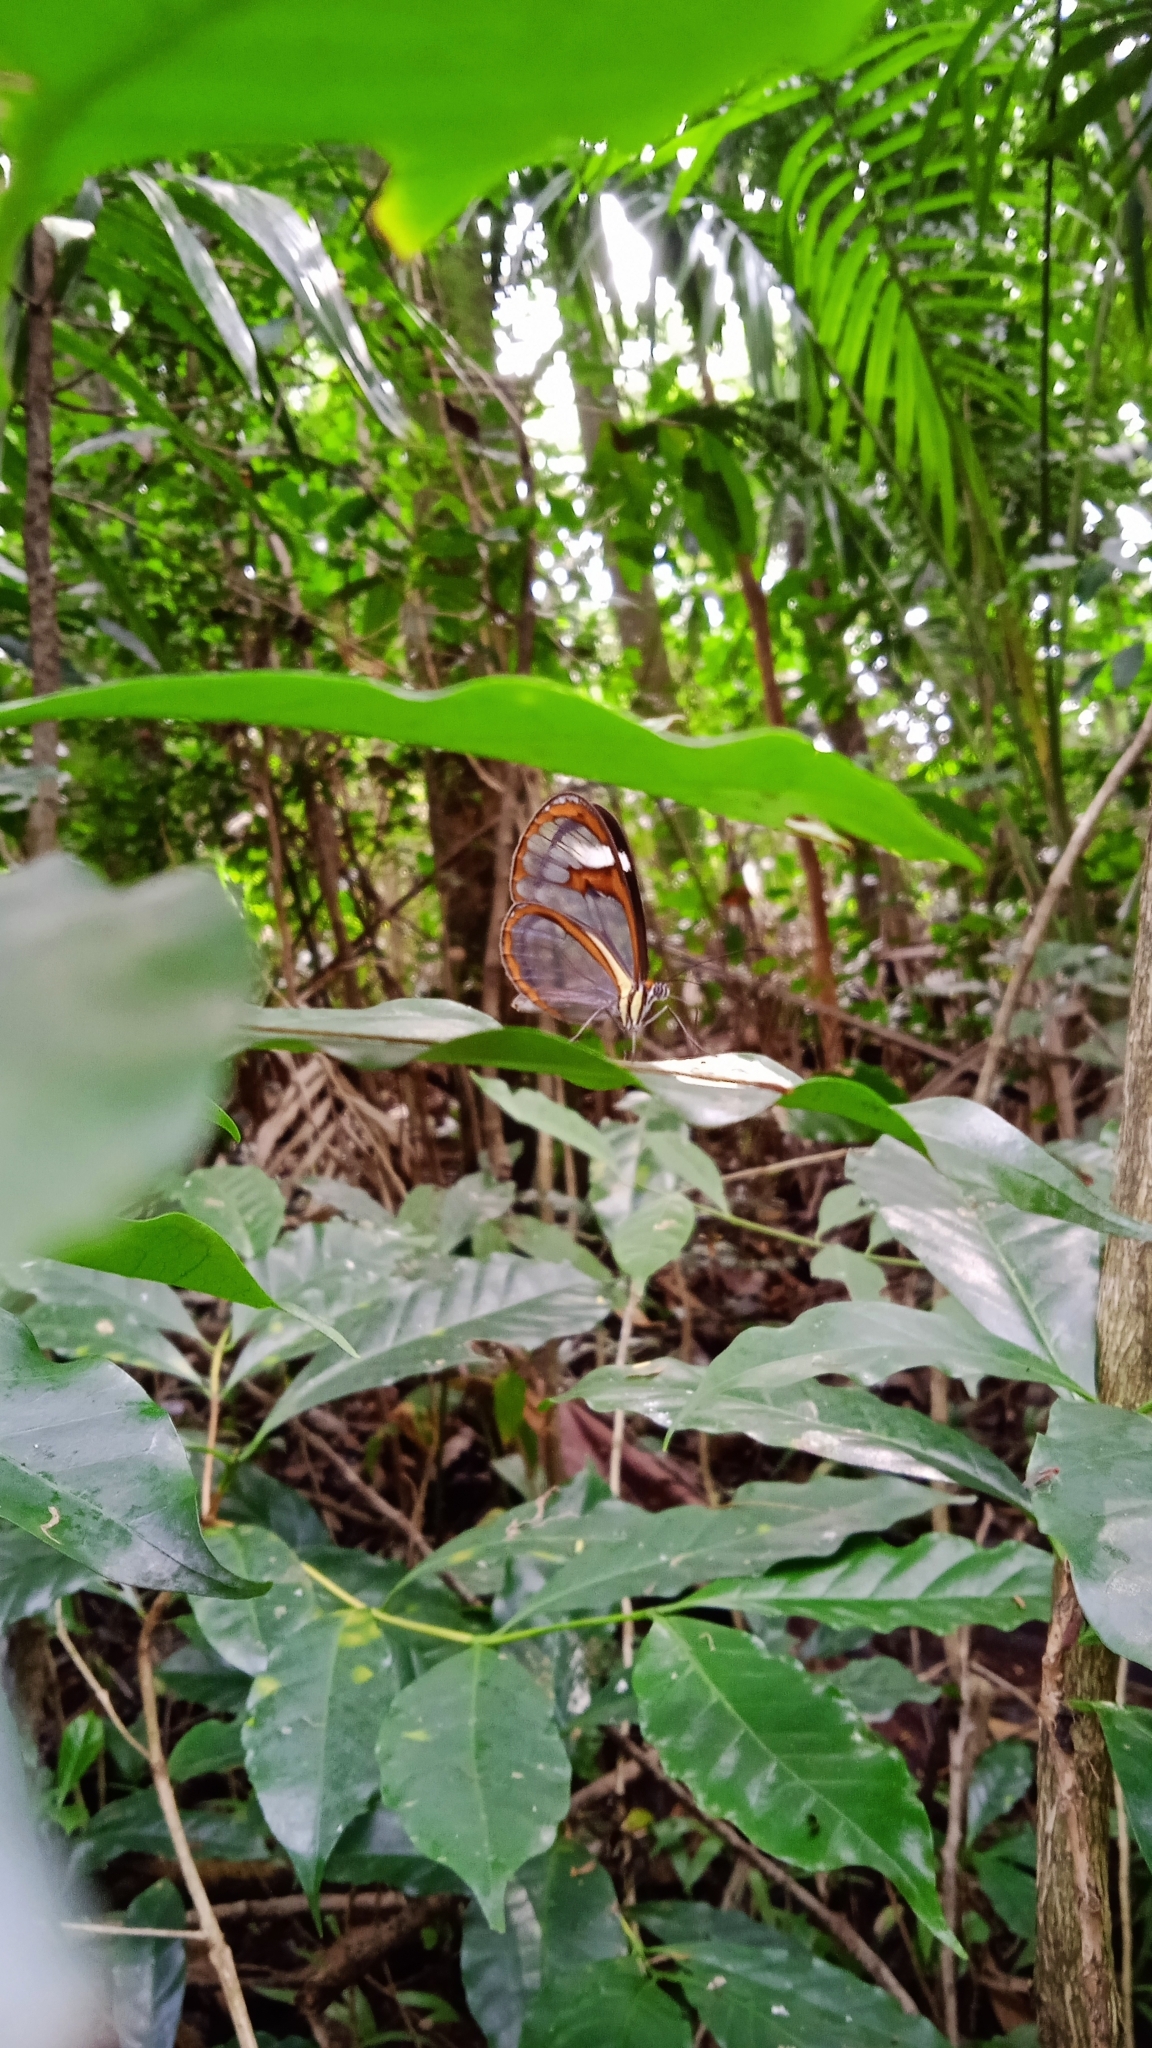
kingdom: Animalia
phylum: Arthropoda
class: Insecta
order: Lepidoptera
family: Nymphalidae
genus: Ithomia
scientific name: Ithomia agnosia
